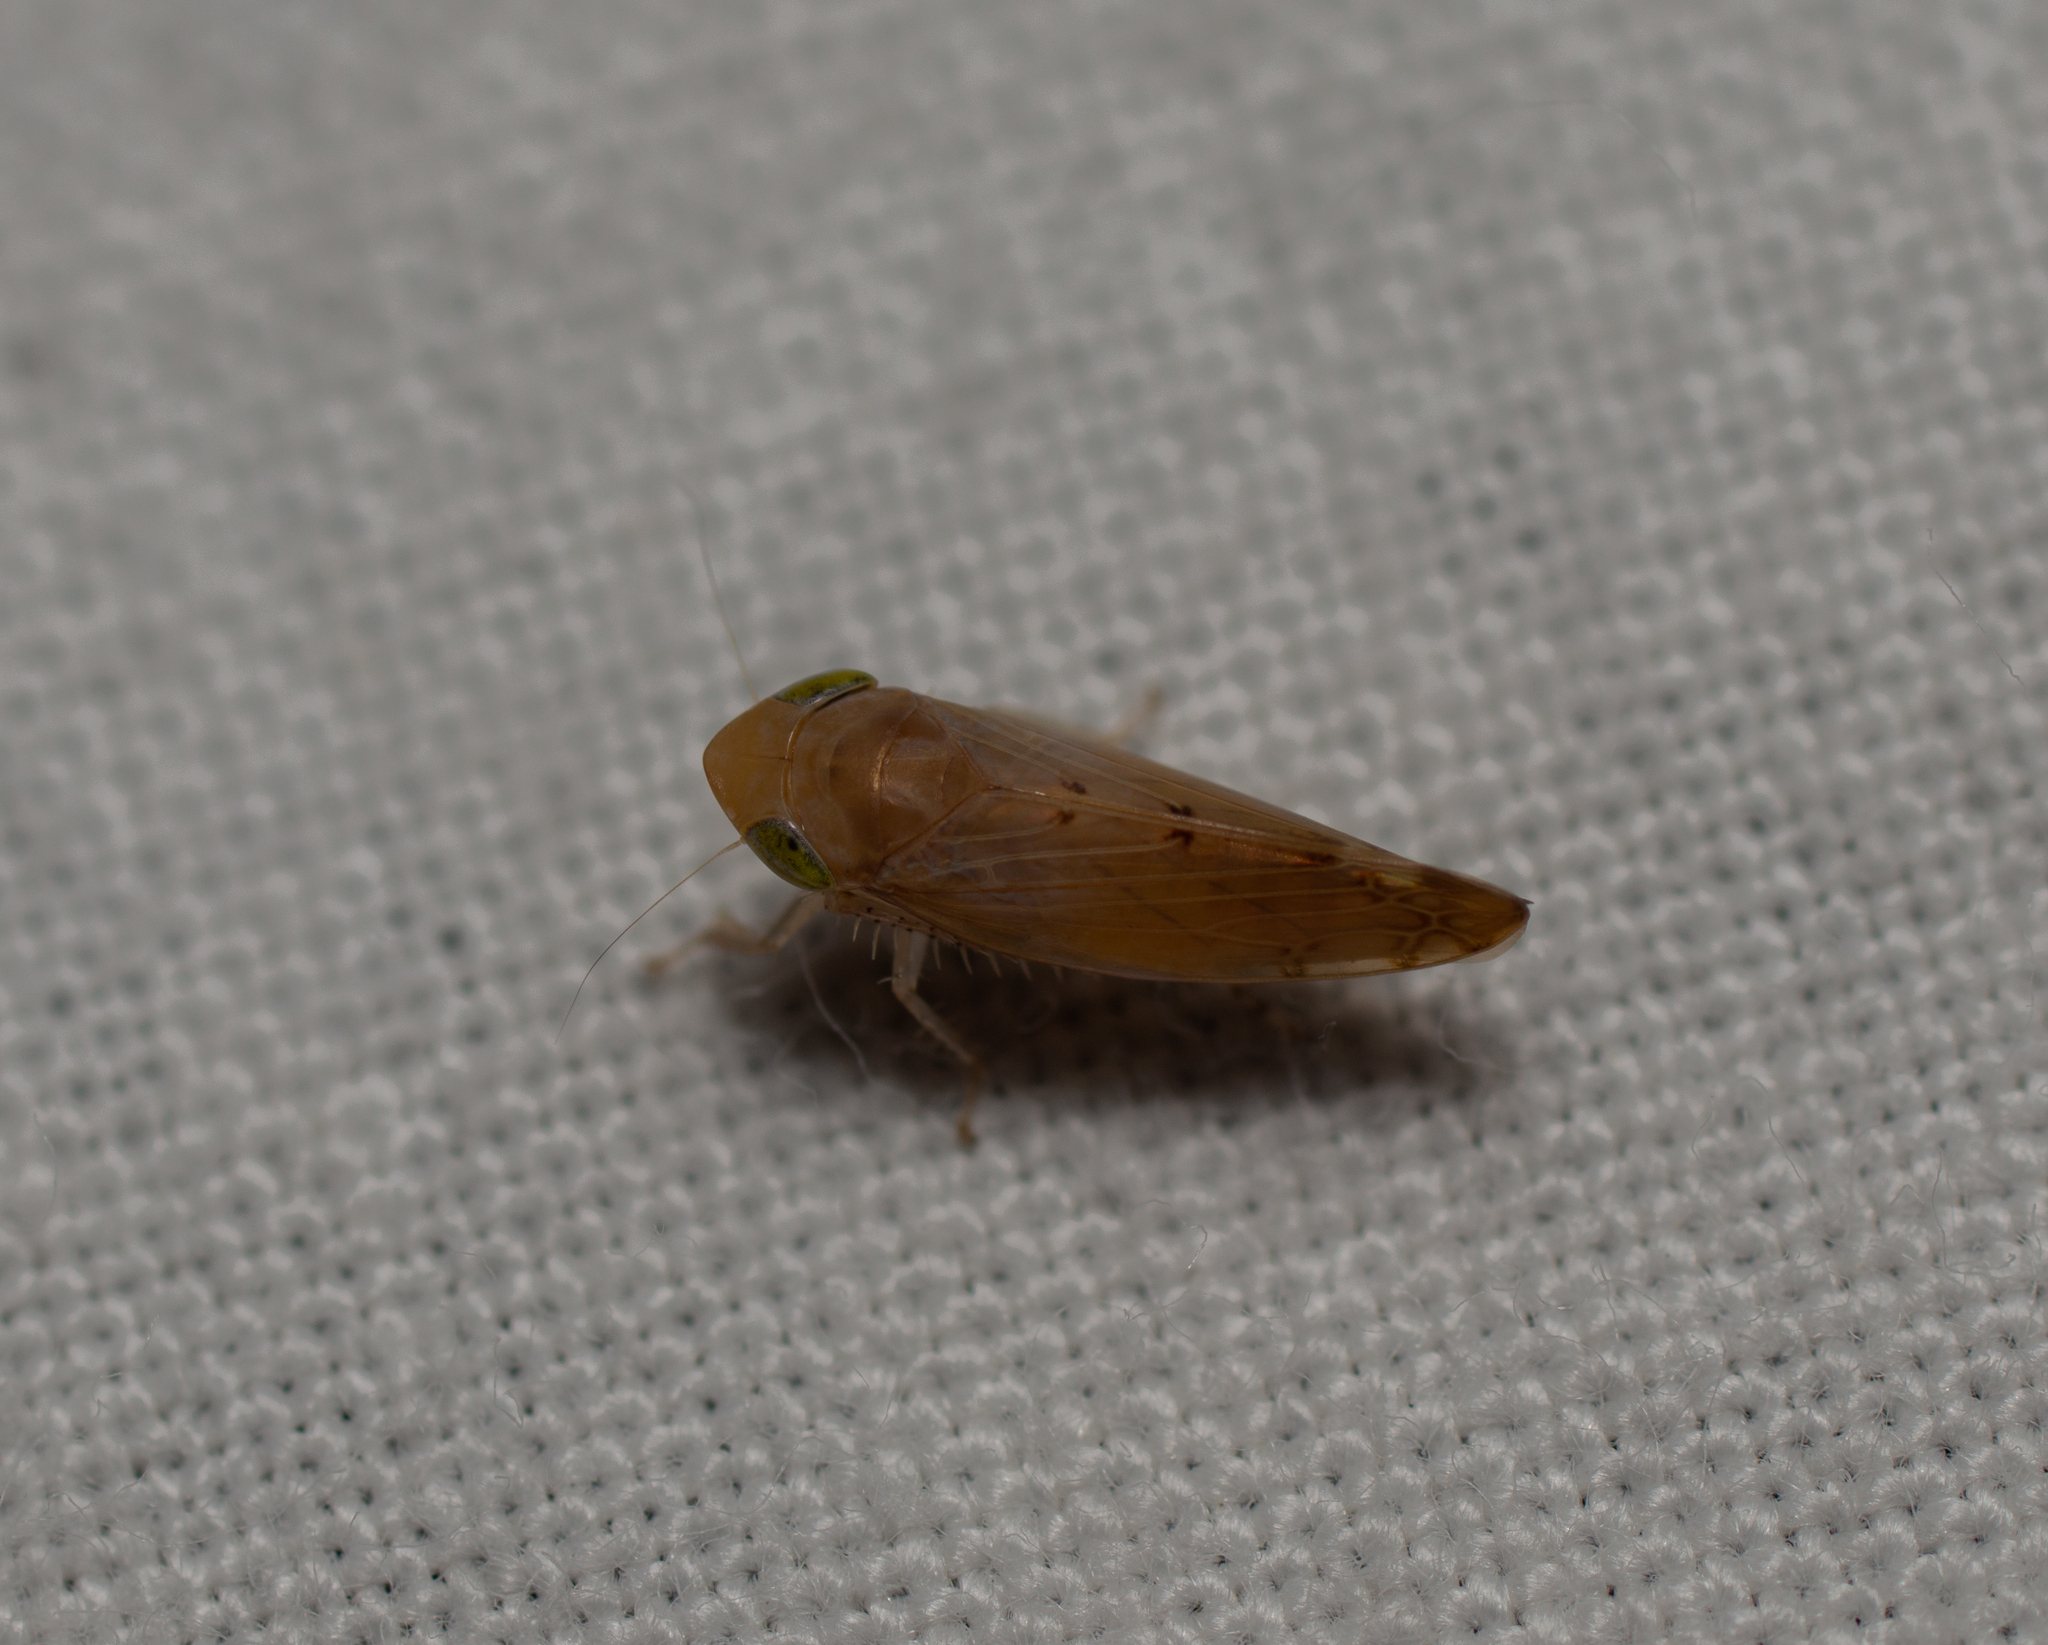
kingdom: Animalia
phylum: Arthropoda
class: Insecta
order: Hemiptera
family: Cicadellidae
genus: Synophropsis
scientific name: Synophropsis lauri
